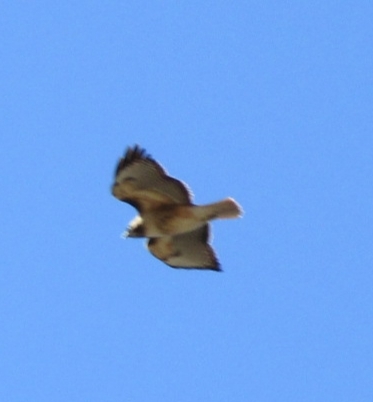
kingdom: Animalia
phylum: Chordata
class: Aves
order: Accipitriformes
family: Accipitridae
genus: Buteo
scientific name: Buteo jamaicensis
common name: Red-tailed hawk
